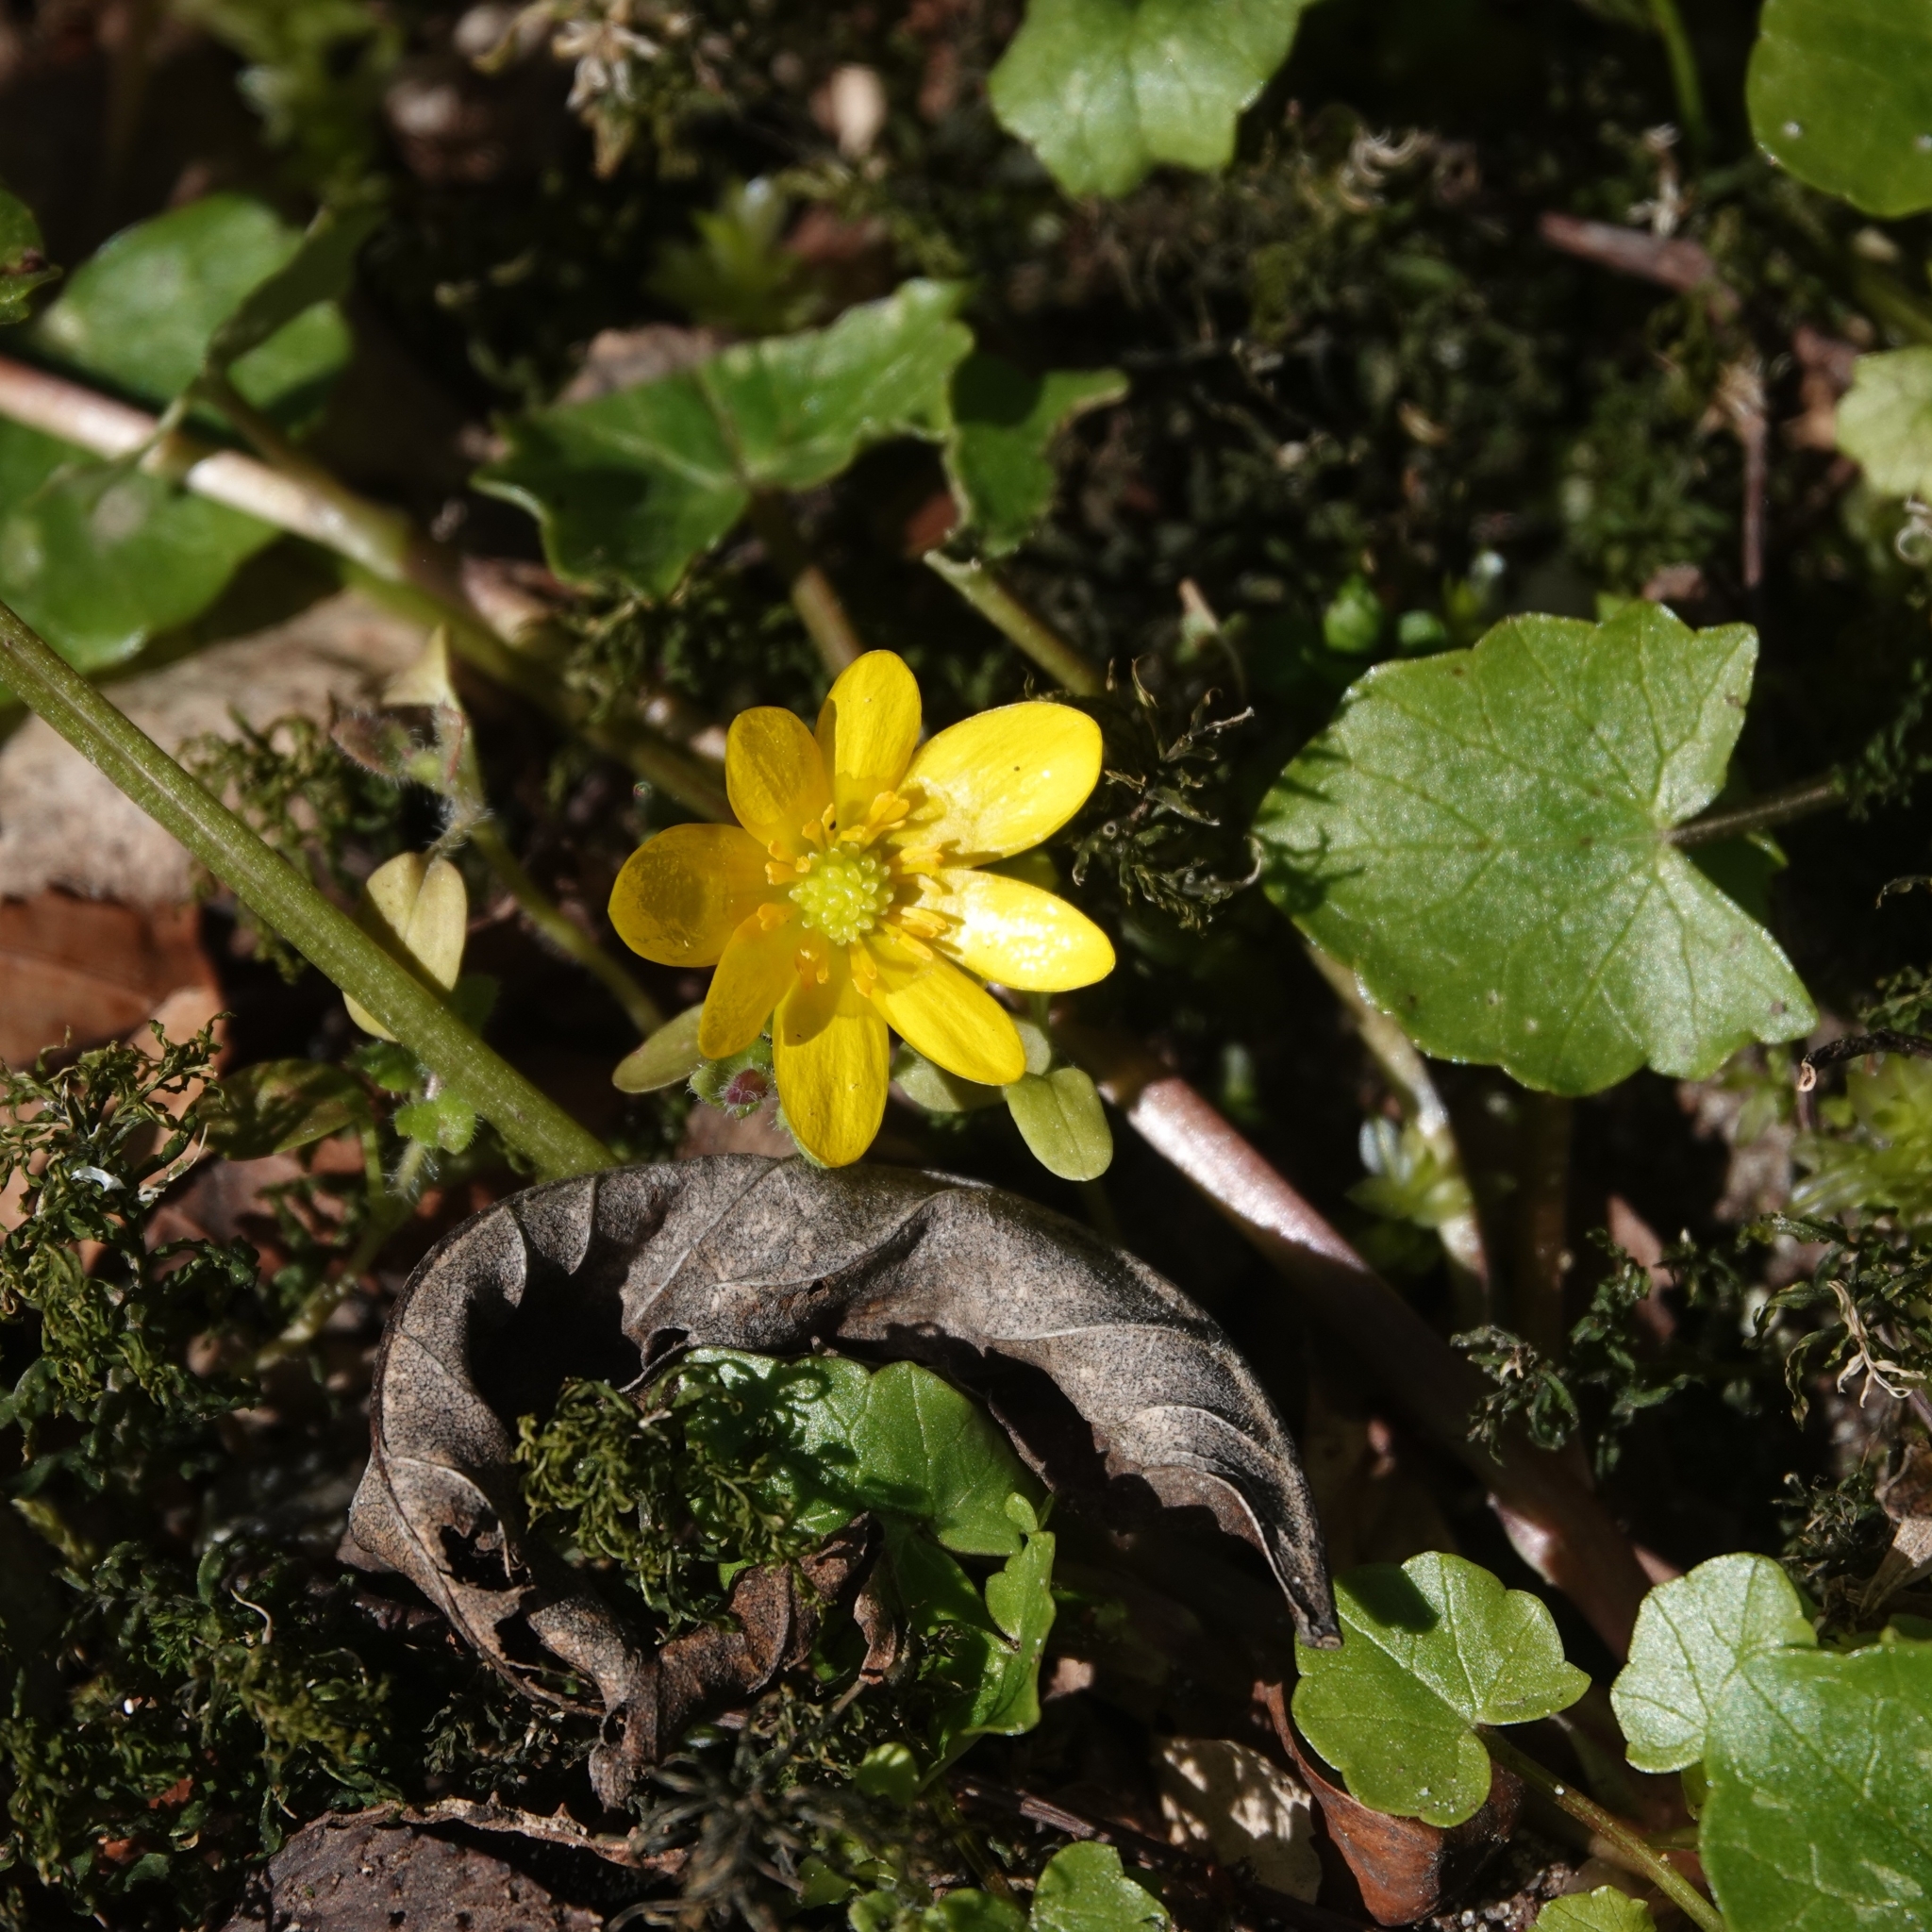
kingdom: Plantae
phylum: Tracheophyta
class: Magnoliopsida
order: Ranunculales
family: Ranunculaceae
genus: Ficaria
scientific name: Ficaria verna
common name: Lesser celandine
